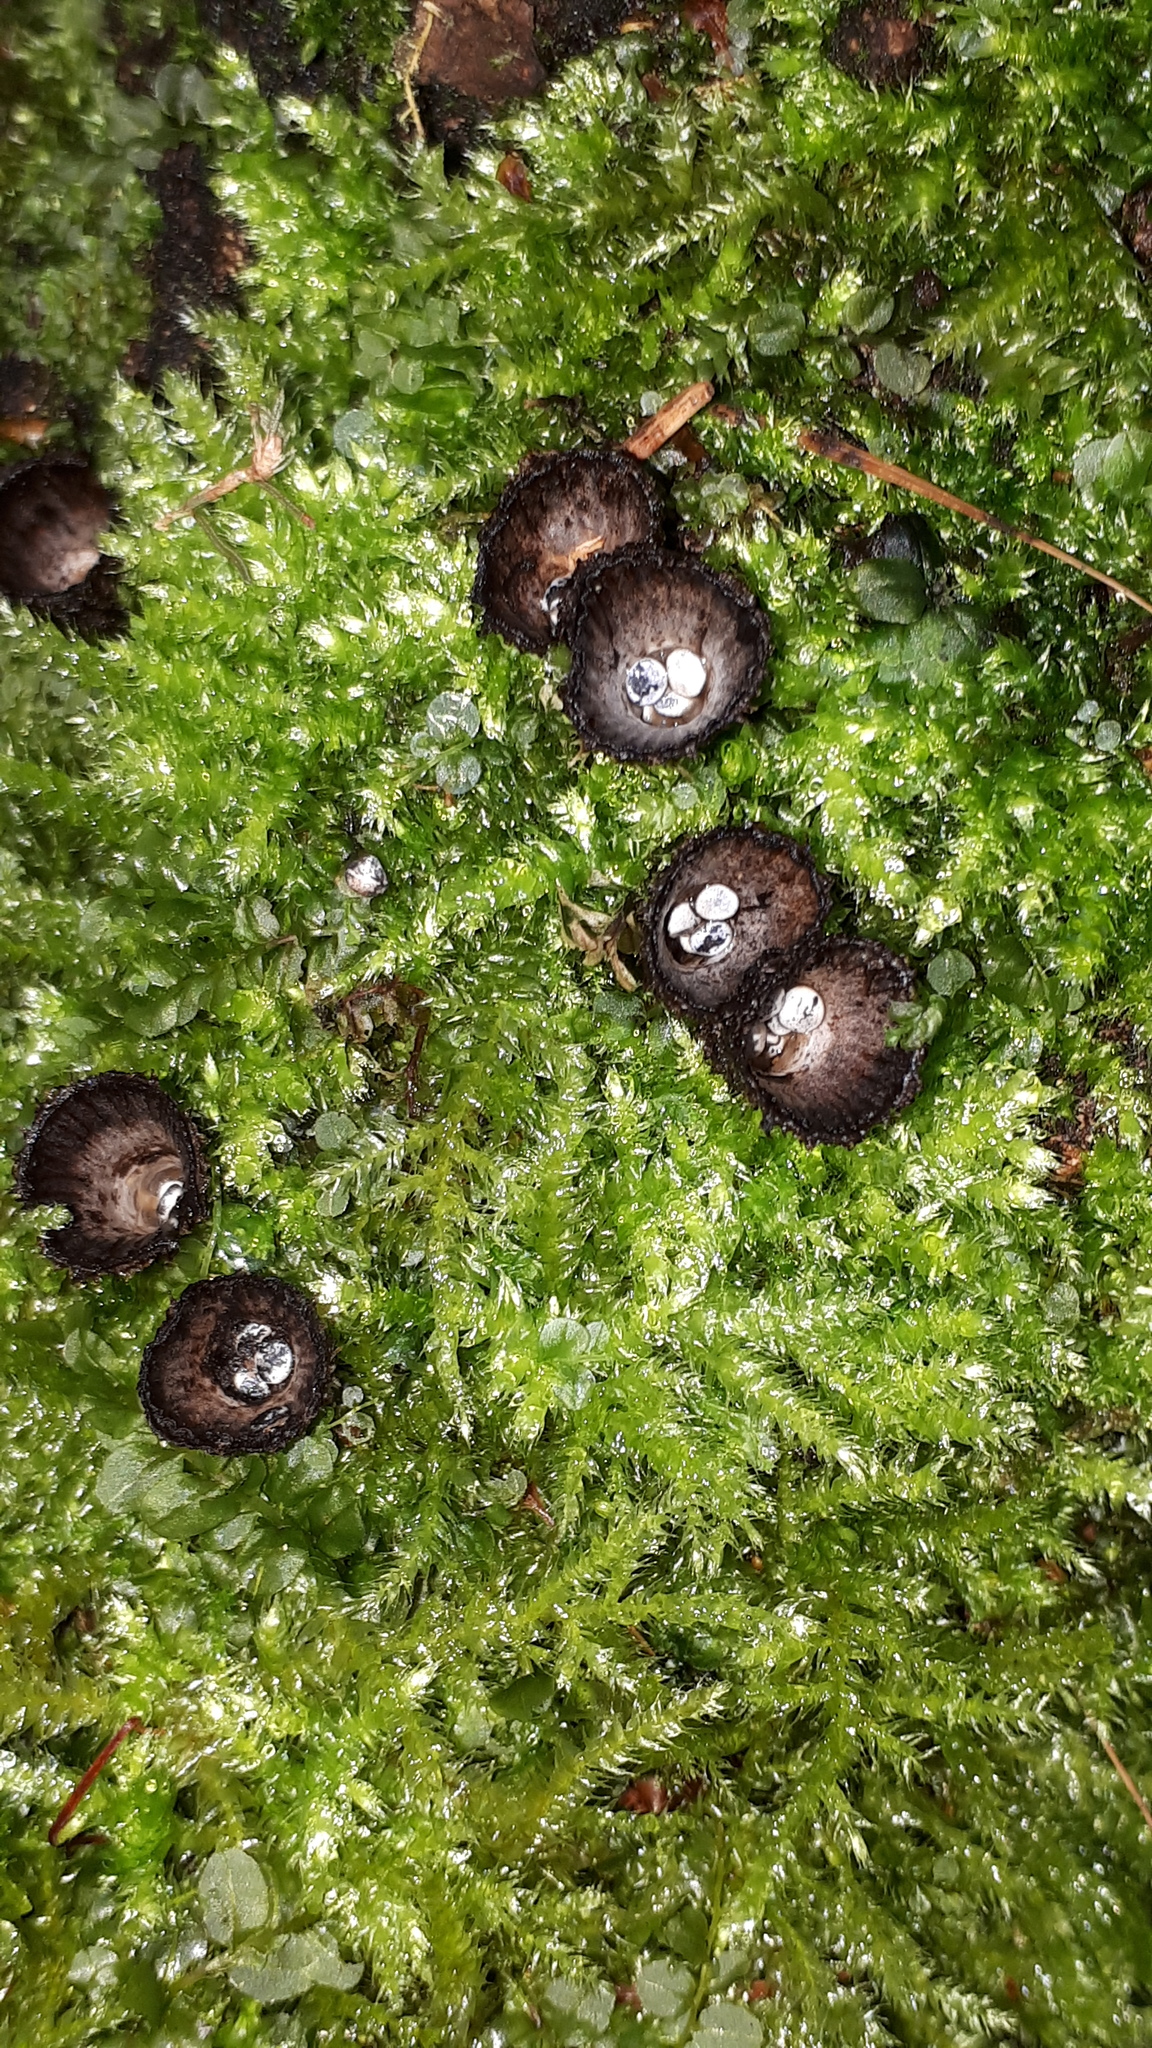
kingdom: Fungi
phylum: Basidiomycota
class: Agaricomycetes
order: Agaricales
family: Agaricaceae
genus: Cyathus
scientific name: Cyathus striatus
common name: Fluted bird's nest
